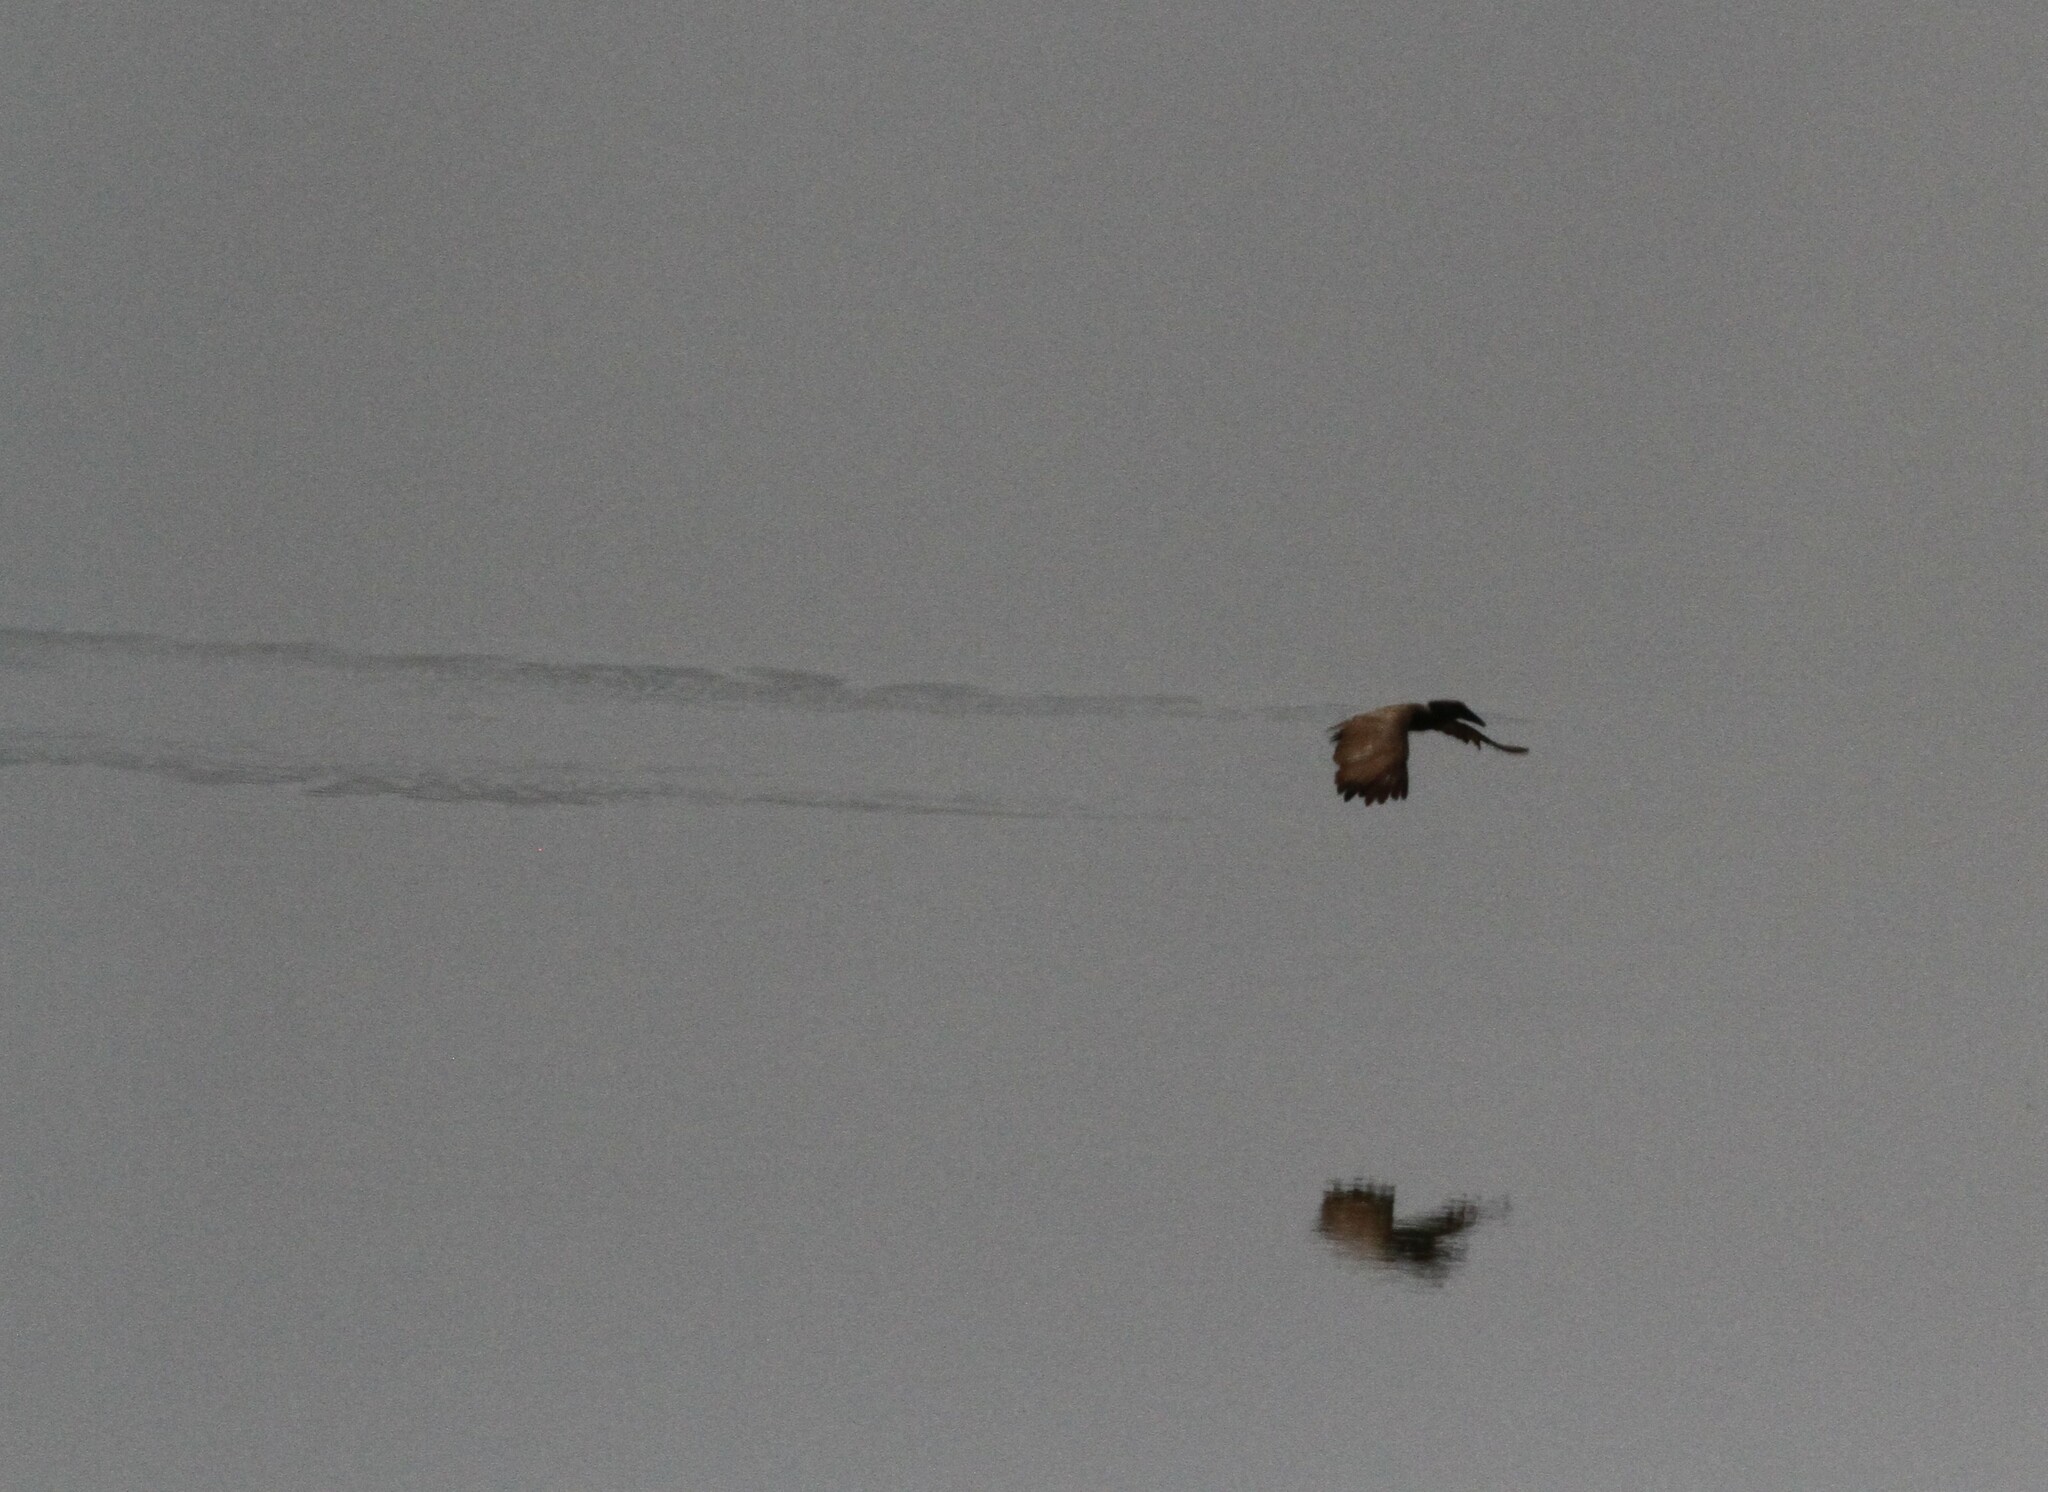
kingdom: Animalia
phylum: Chordata
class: Aves
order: Pelecaniformes
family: Scopidae
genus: Scopus
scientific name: Scopus umbretta
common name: Hamerkop
